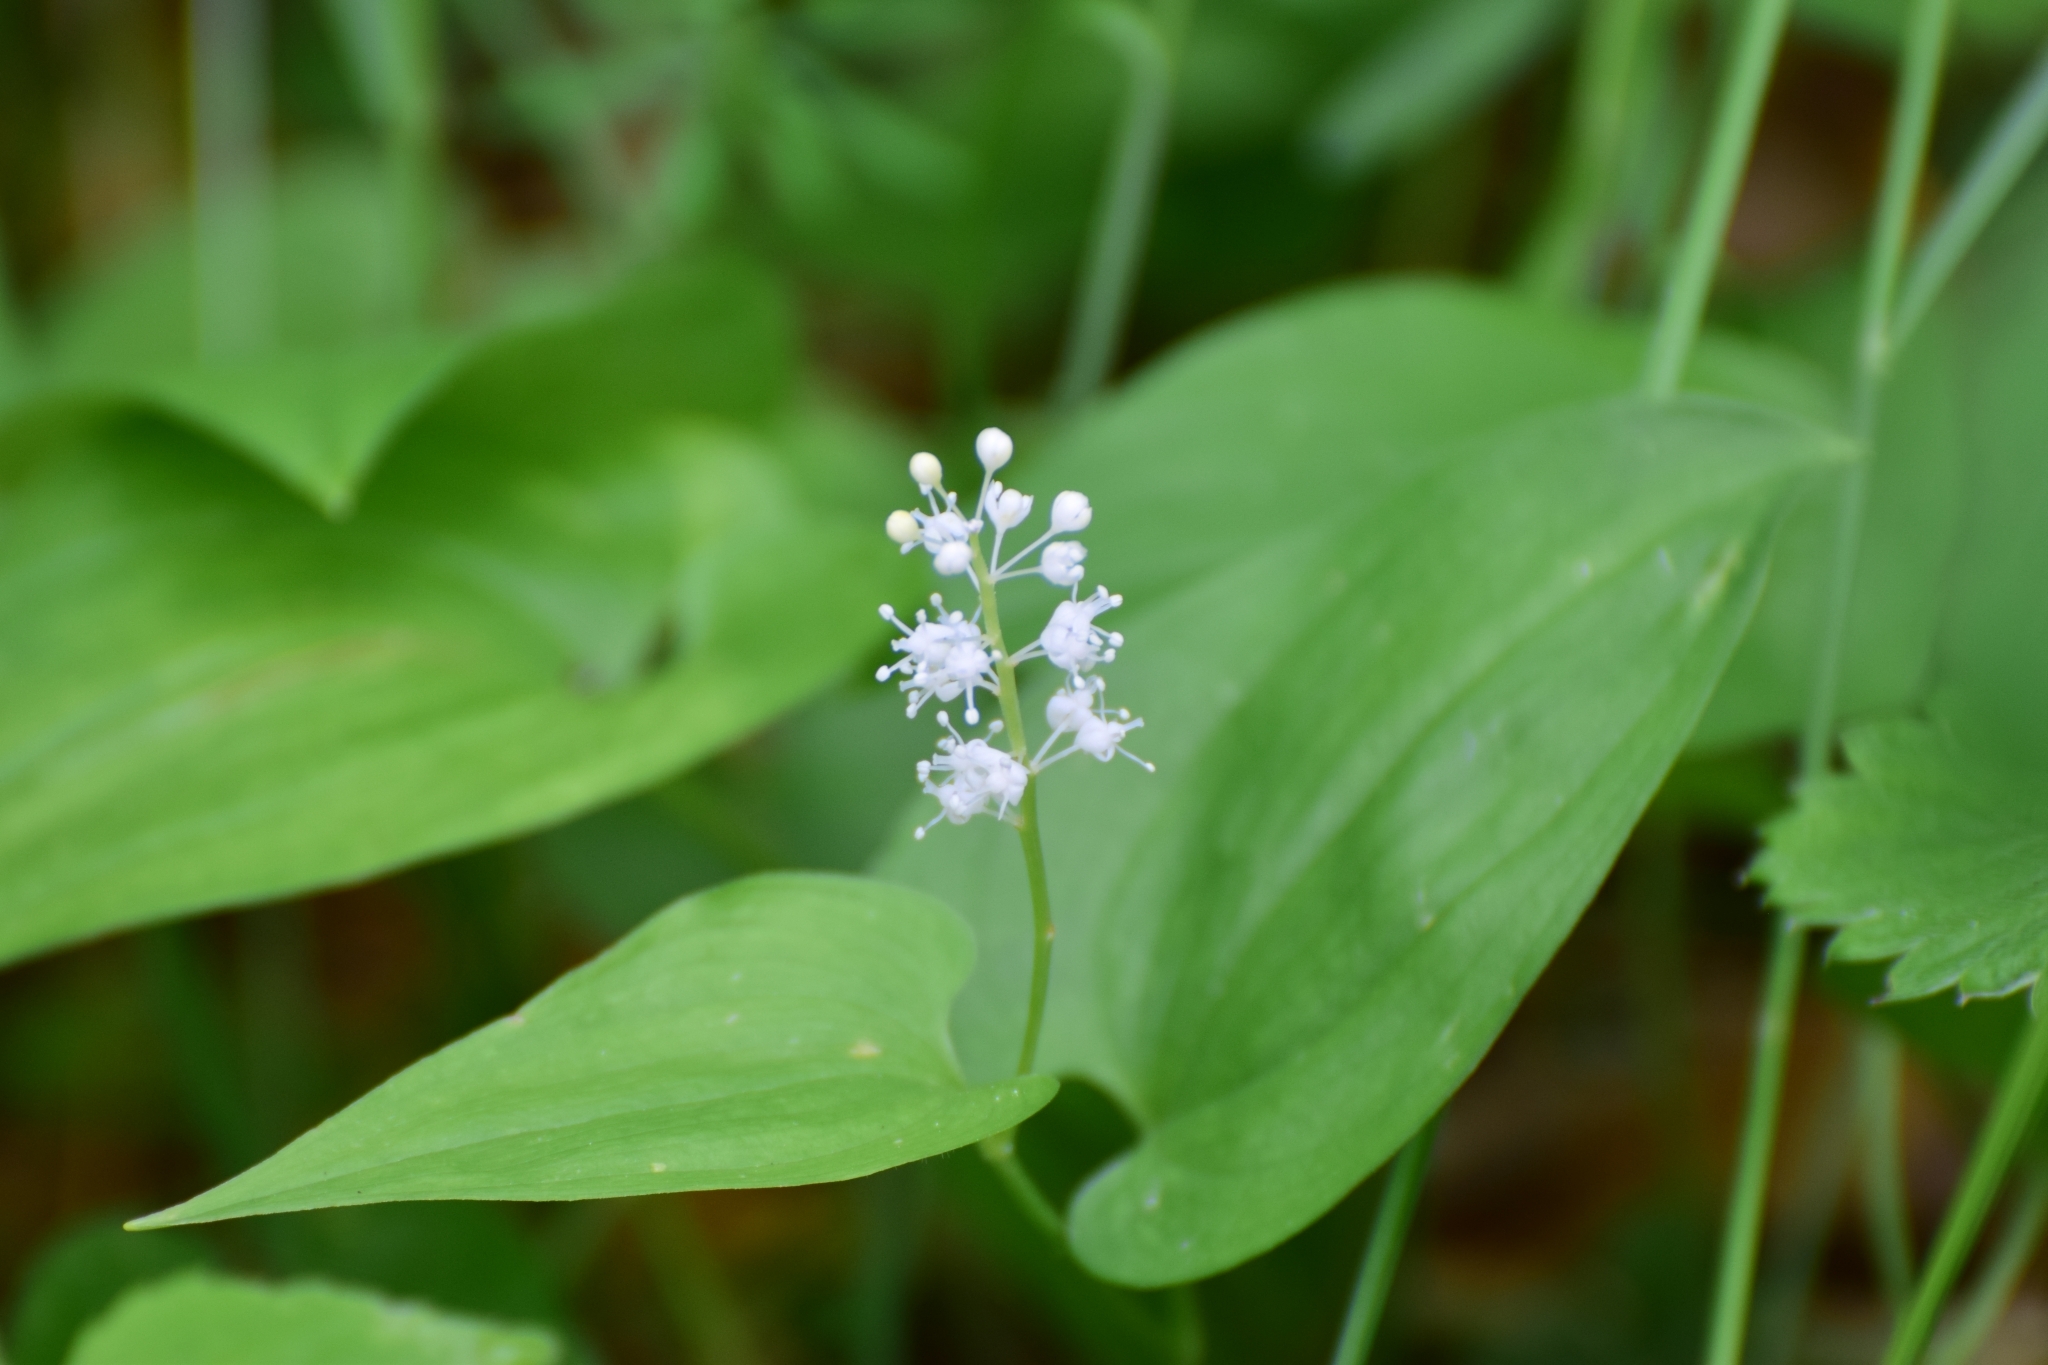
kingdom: Plantae
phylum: Tracheophyta
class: Liliopsida
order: Asparagales
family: Asparagaceae
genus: Maianthemum
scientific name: Maianthemum bifolium
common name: May lily
